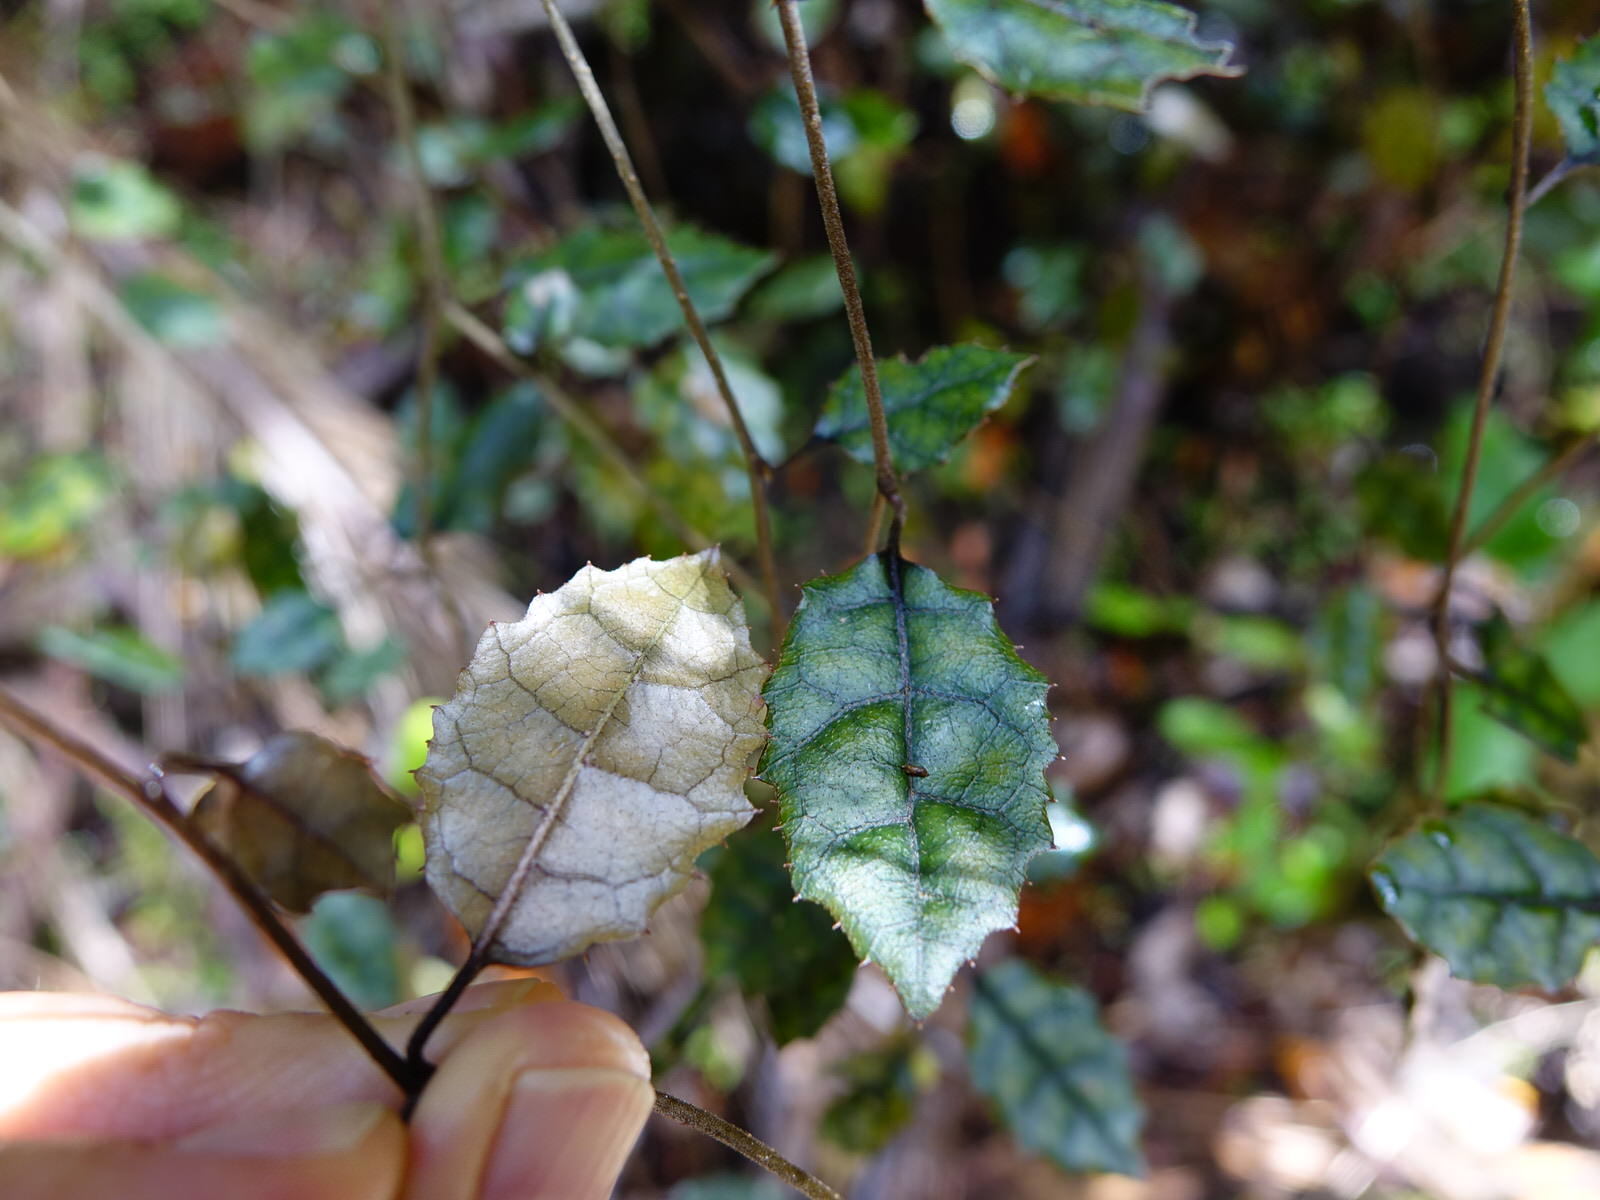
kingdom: Plantae
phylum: Tracheophyta
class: Magnoliopsida
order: Asterales
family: Rousseaceae
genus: Carpodetus
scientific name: Carpodetus serratus
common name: White mapau
